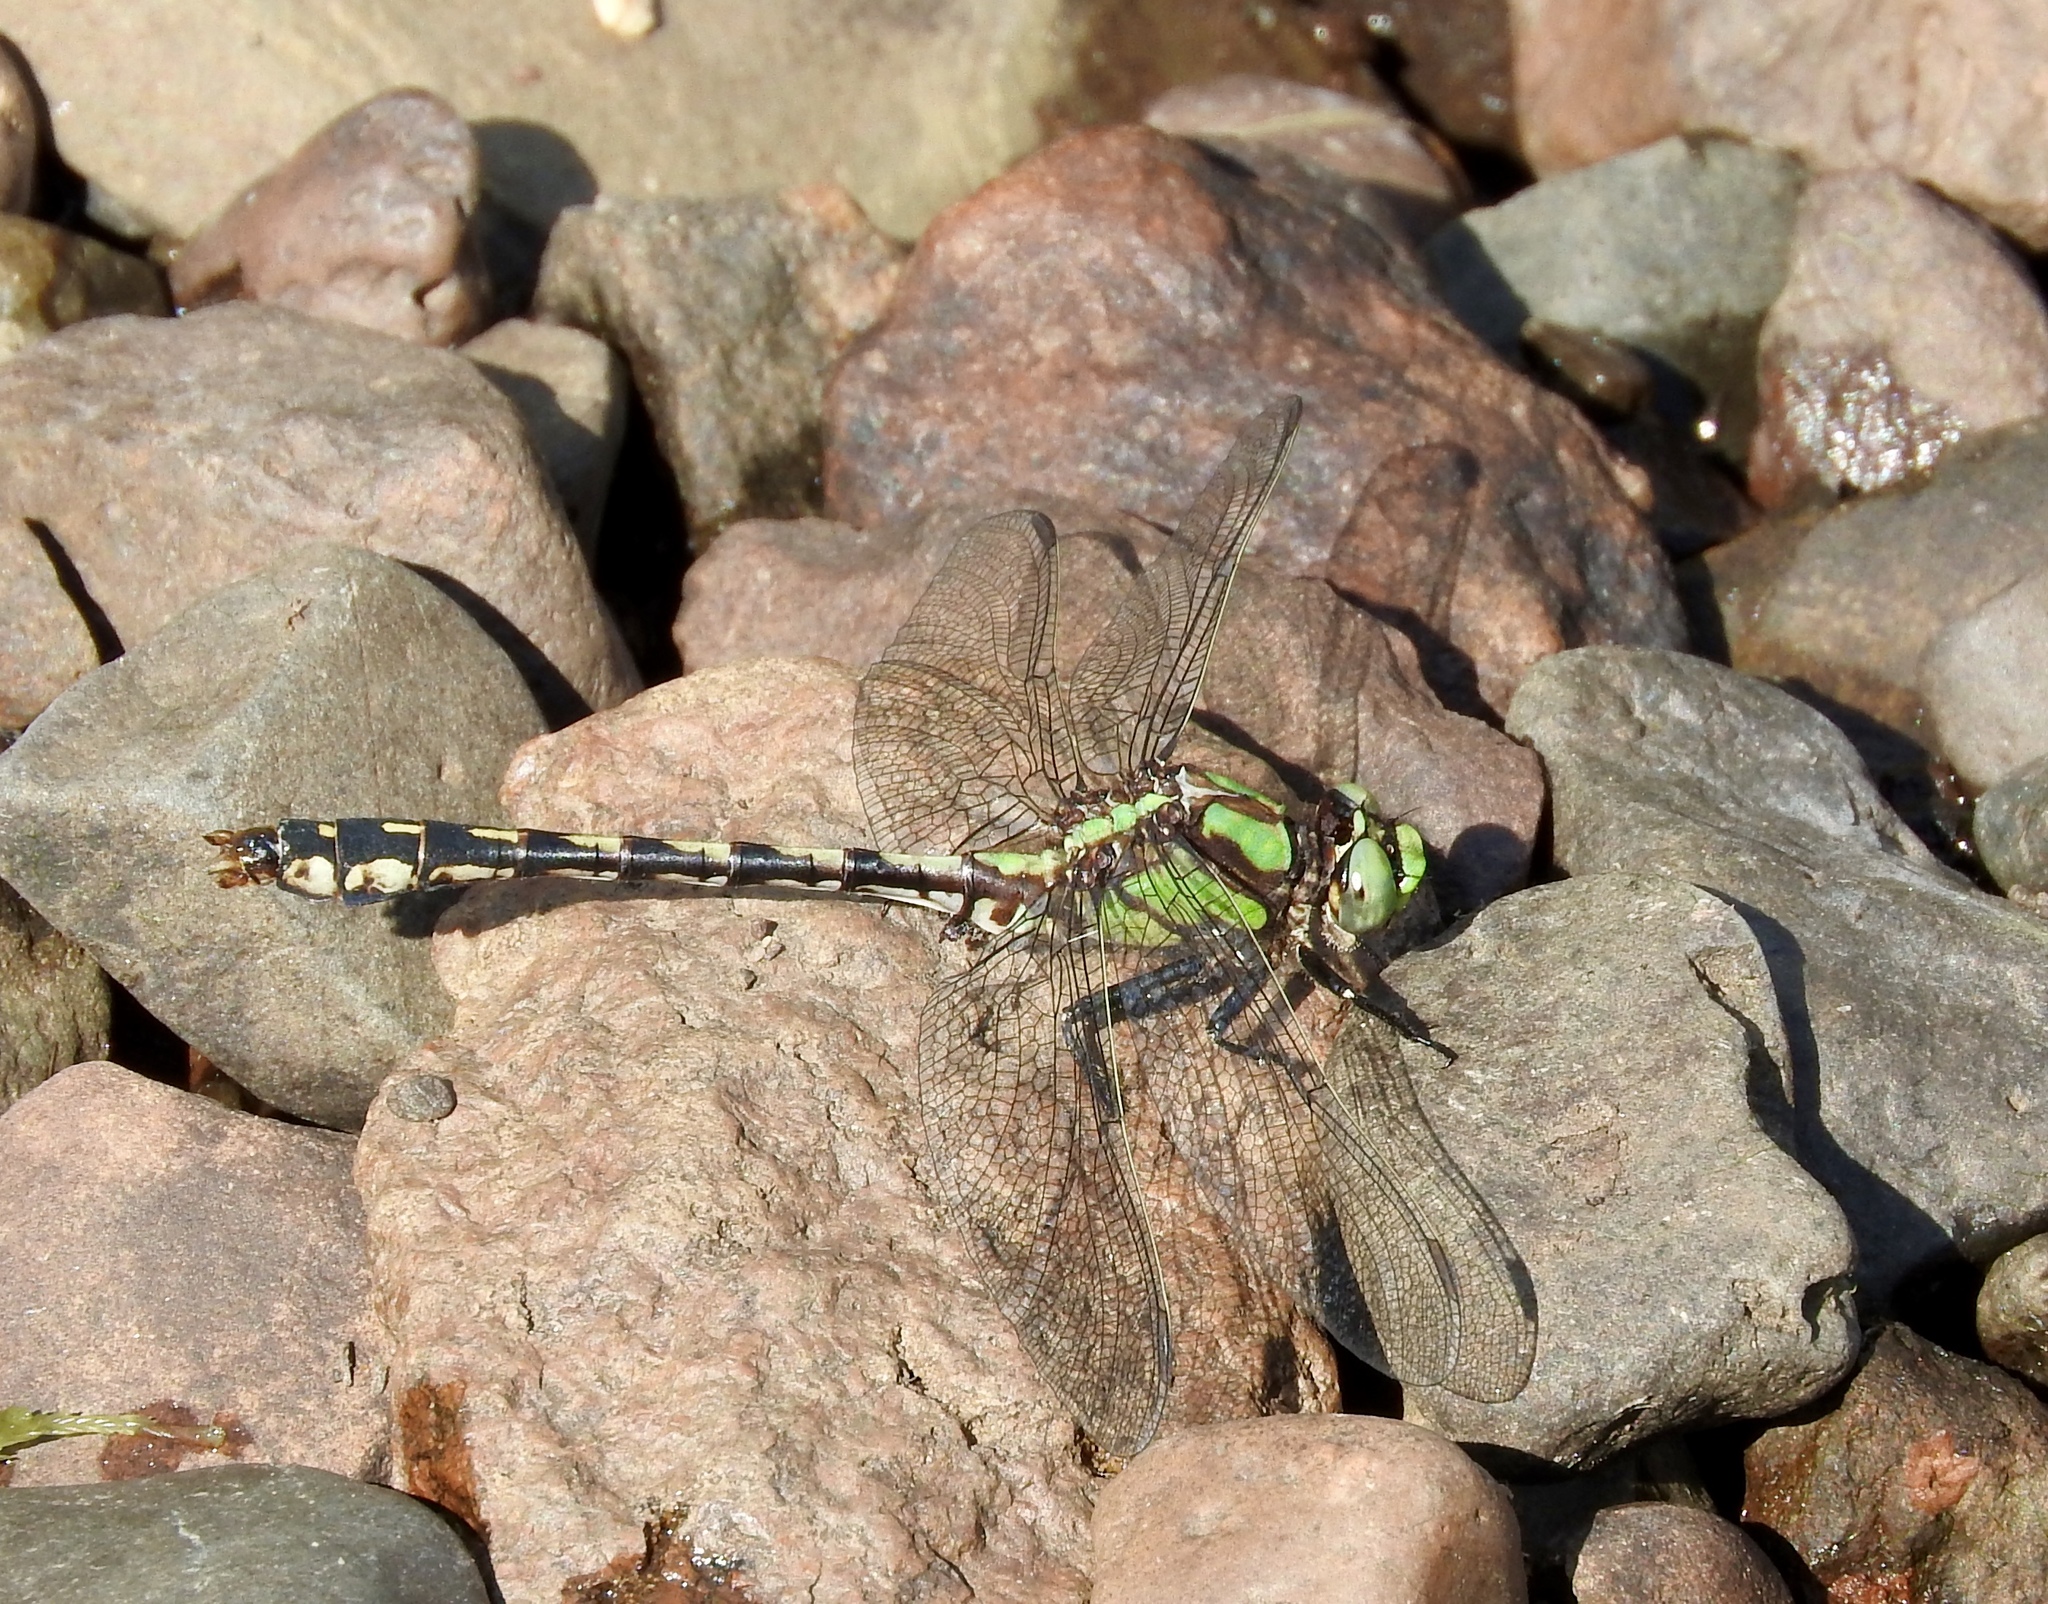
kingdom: Animalia
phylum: Arthropoda
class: Insecta
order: Odonata
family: Gomphidae
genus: Ophiogomphus
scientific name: Ophiogomphus carolus
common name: Riffle snaketail
